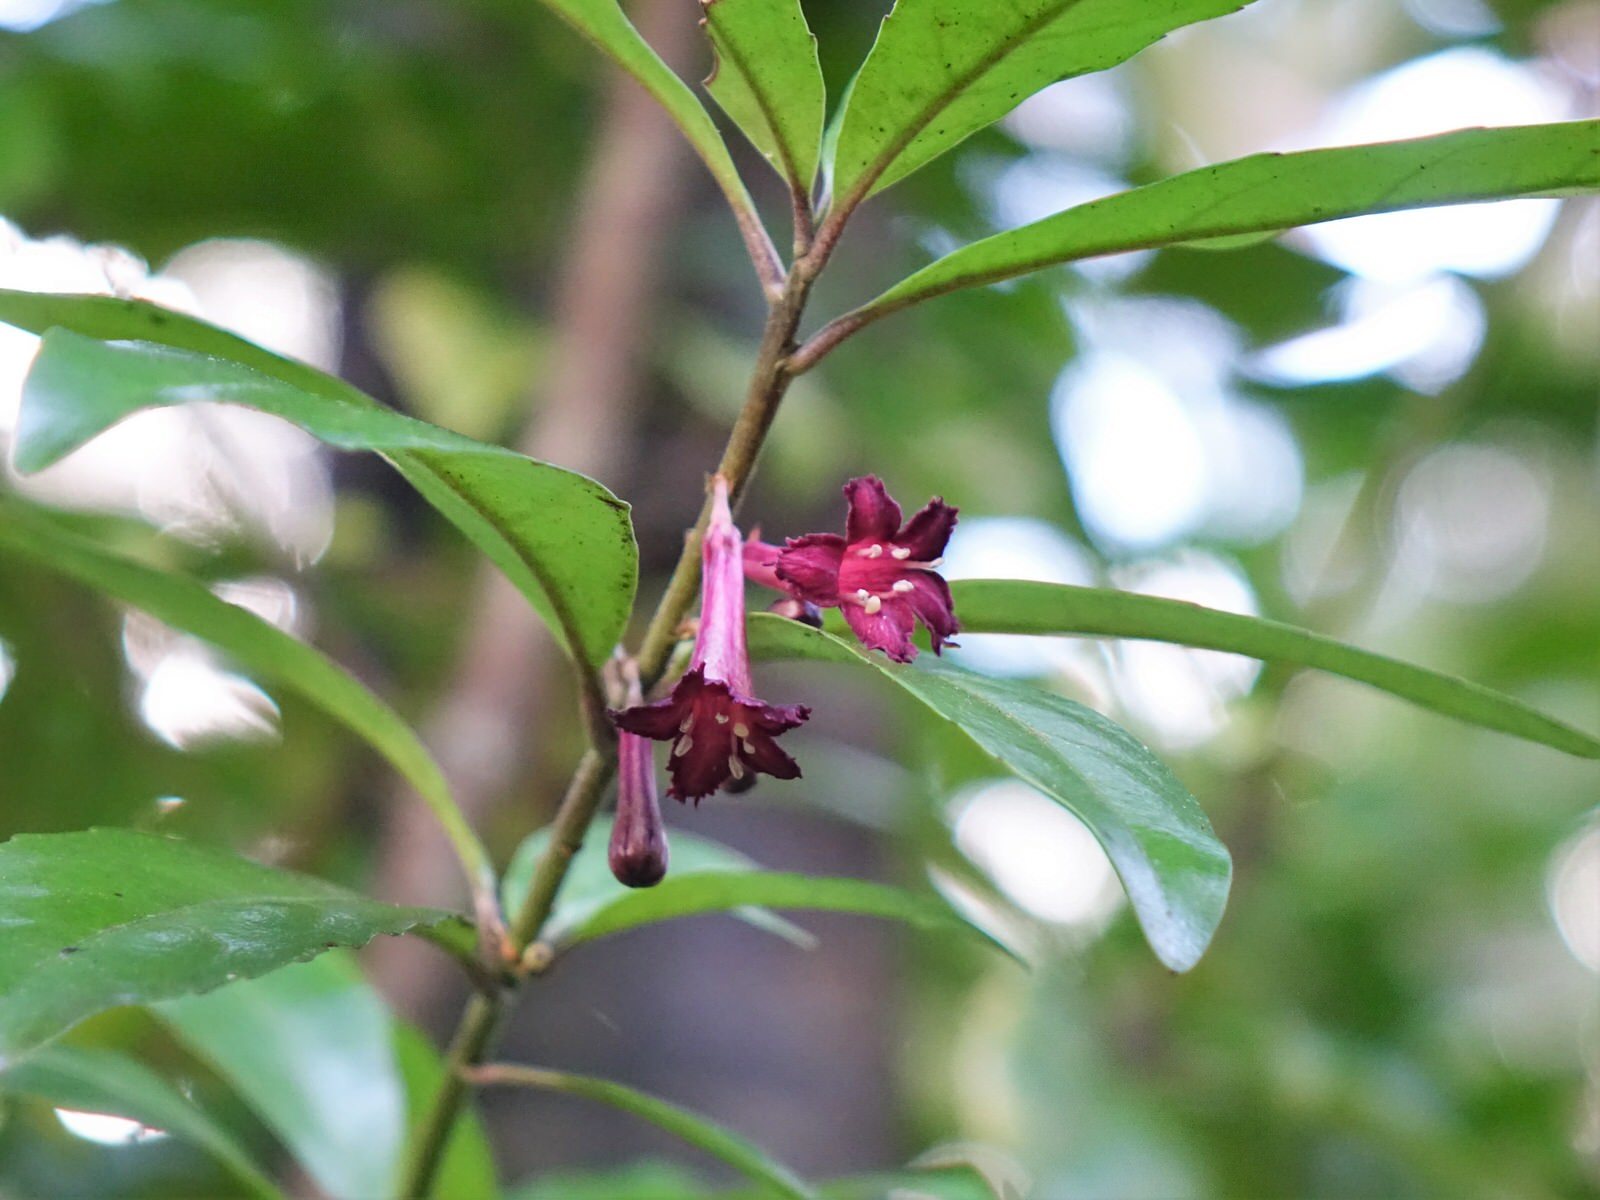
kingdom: Plantae
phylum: Tracheophyta
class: Magnoliopsida
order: Asterales
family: Alseuosmiaceae
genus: Alseuosmia
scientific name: Alseuosmia macrophylla
